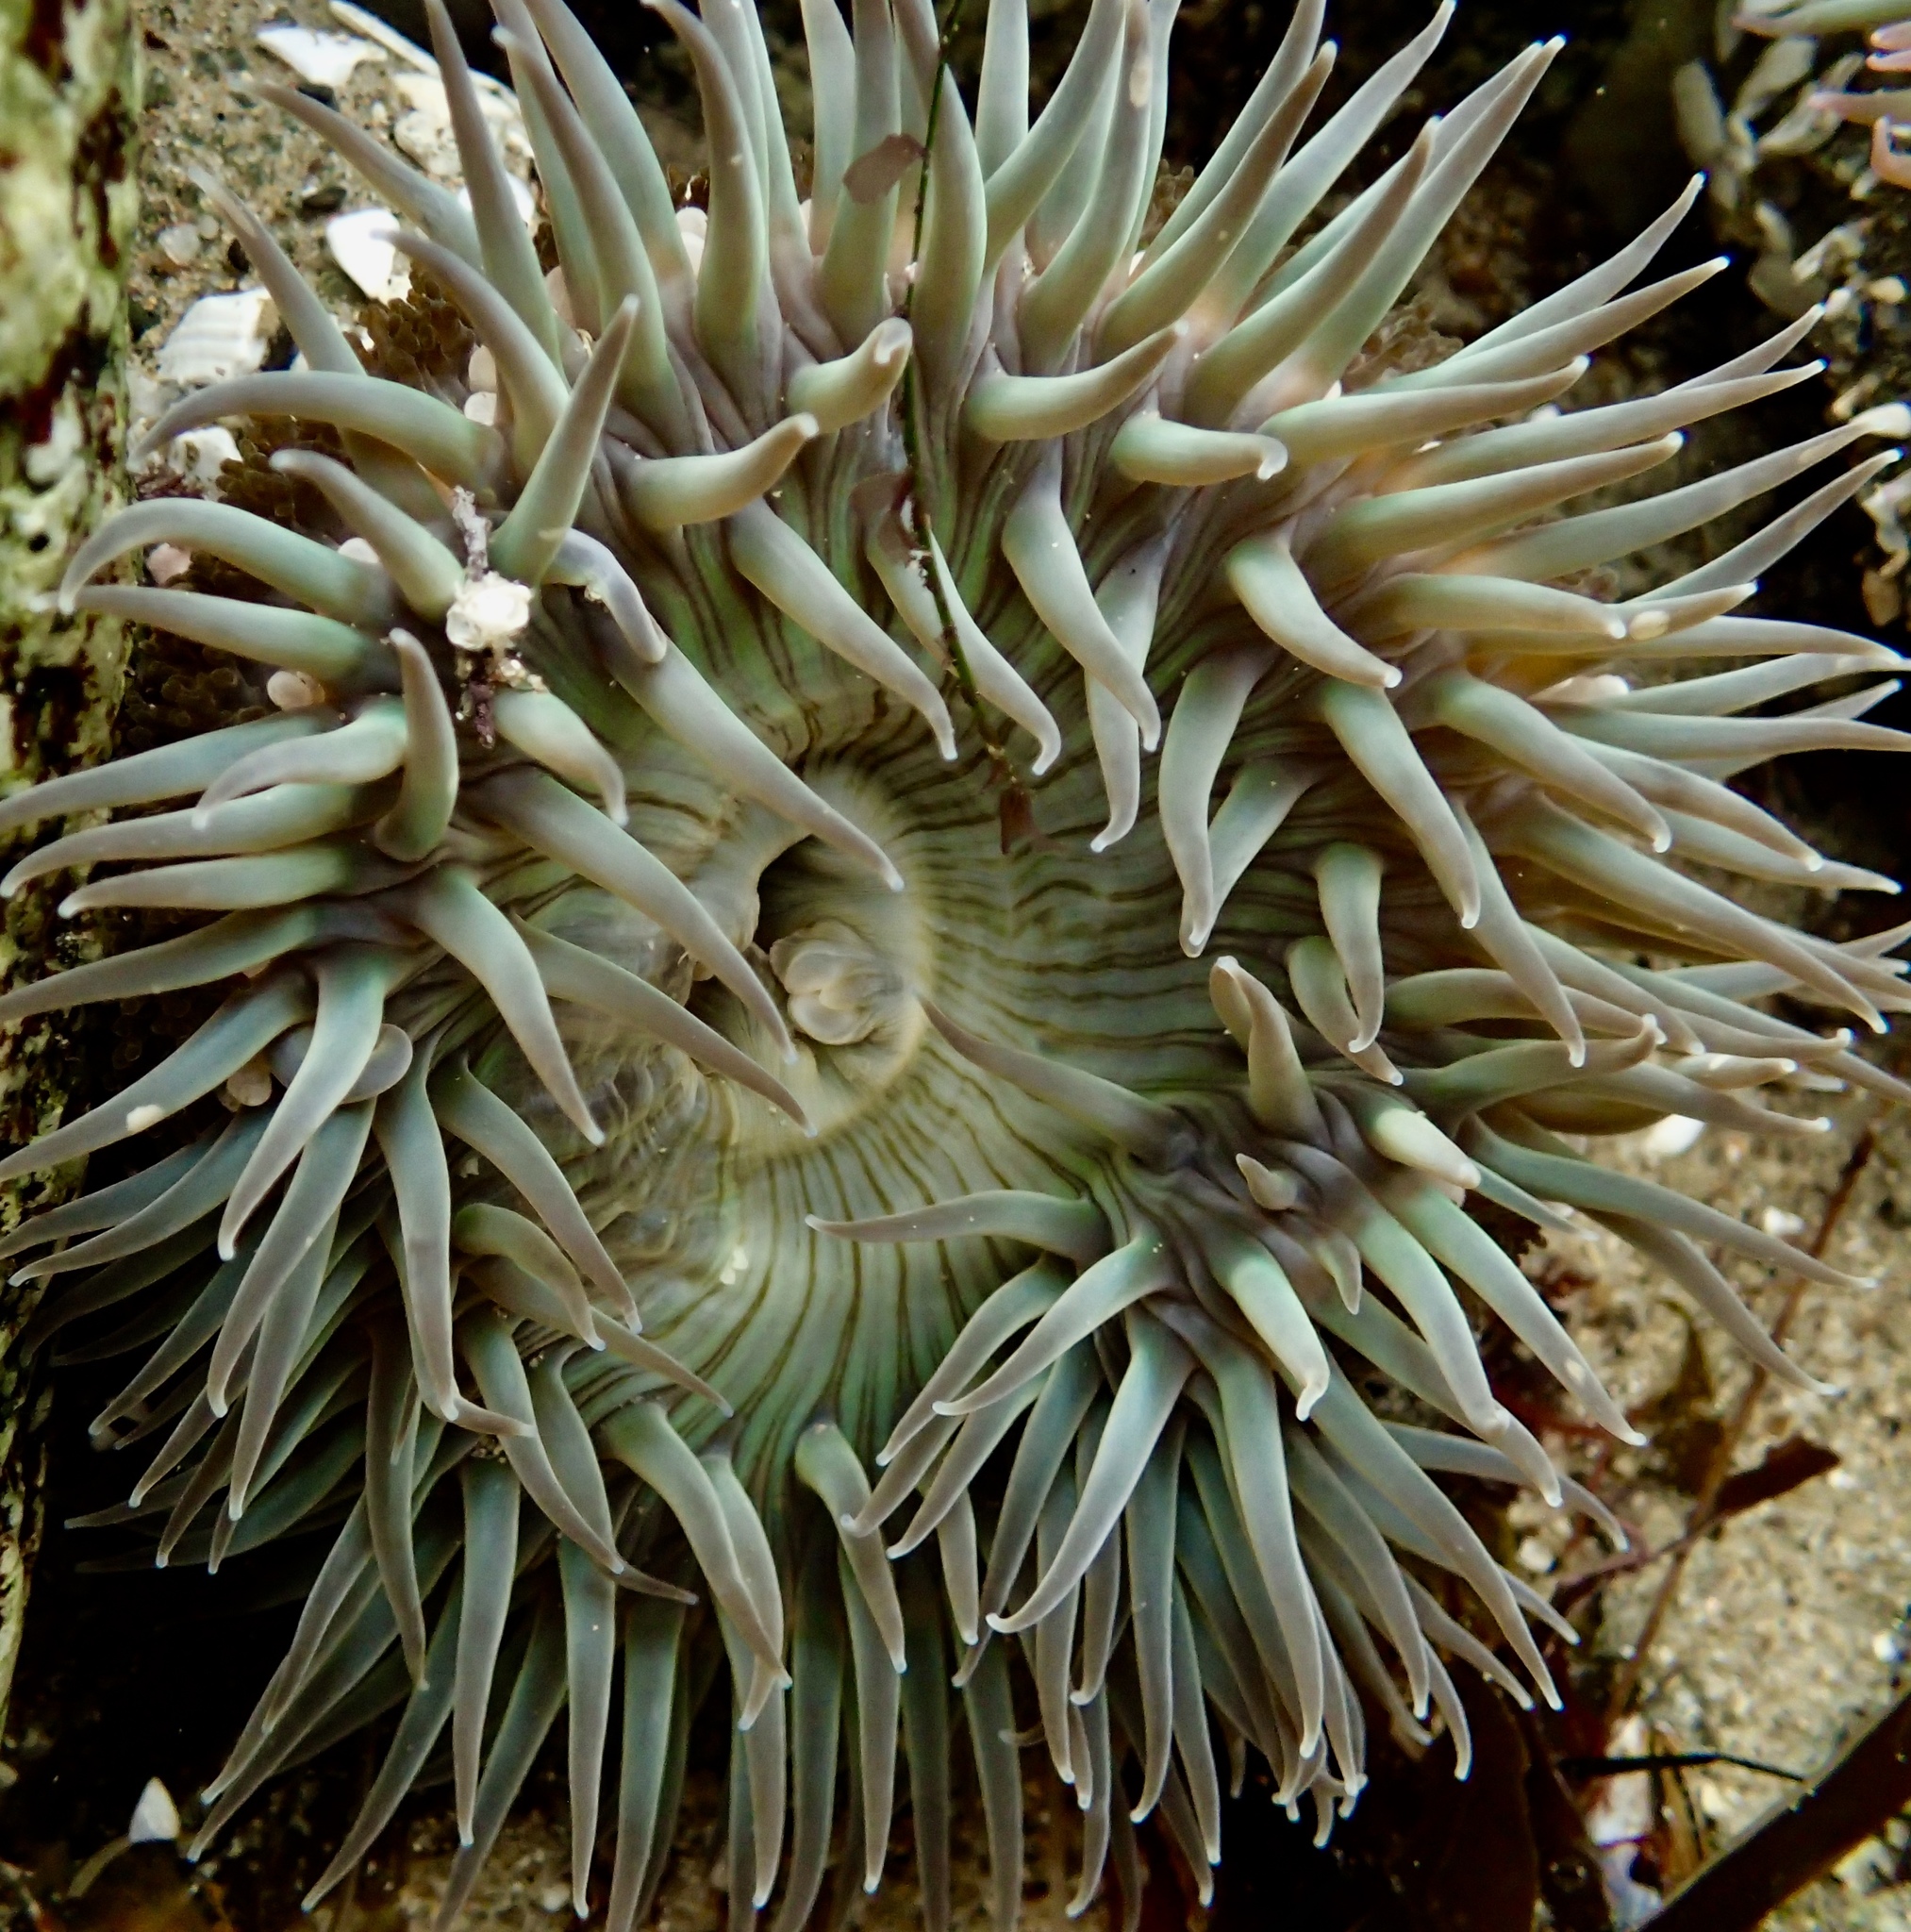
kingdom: Animalia
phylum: Cnidaria
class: Anthozoa
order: Actiniaria
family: Actiniidae
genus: Anthopleura
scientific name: Anthopleura sola
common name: Sun anemone
